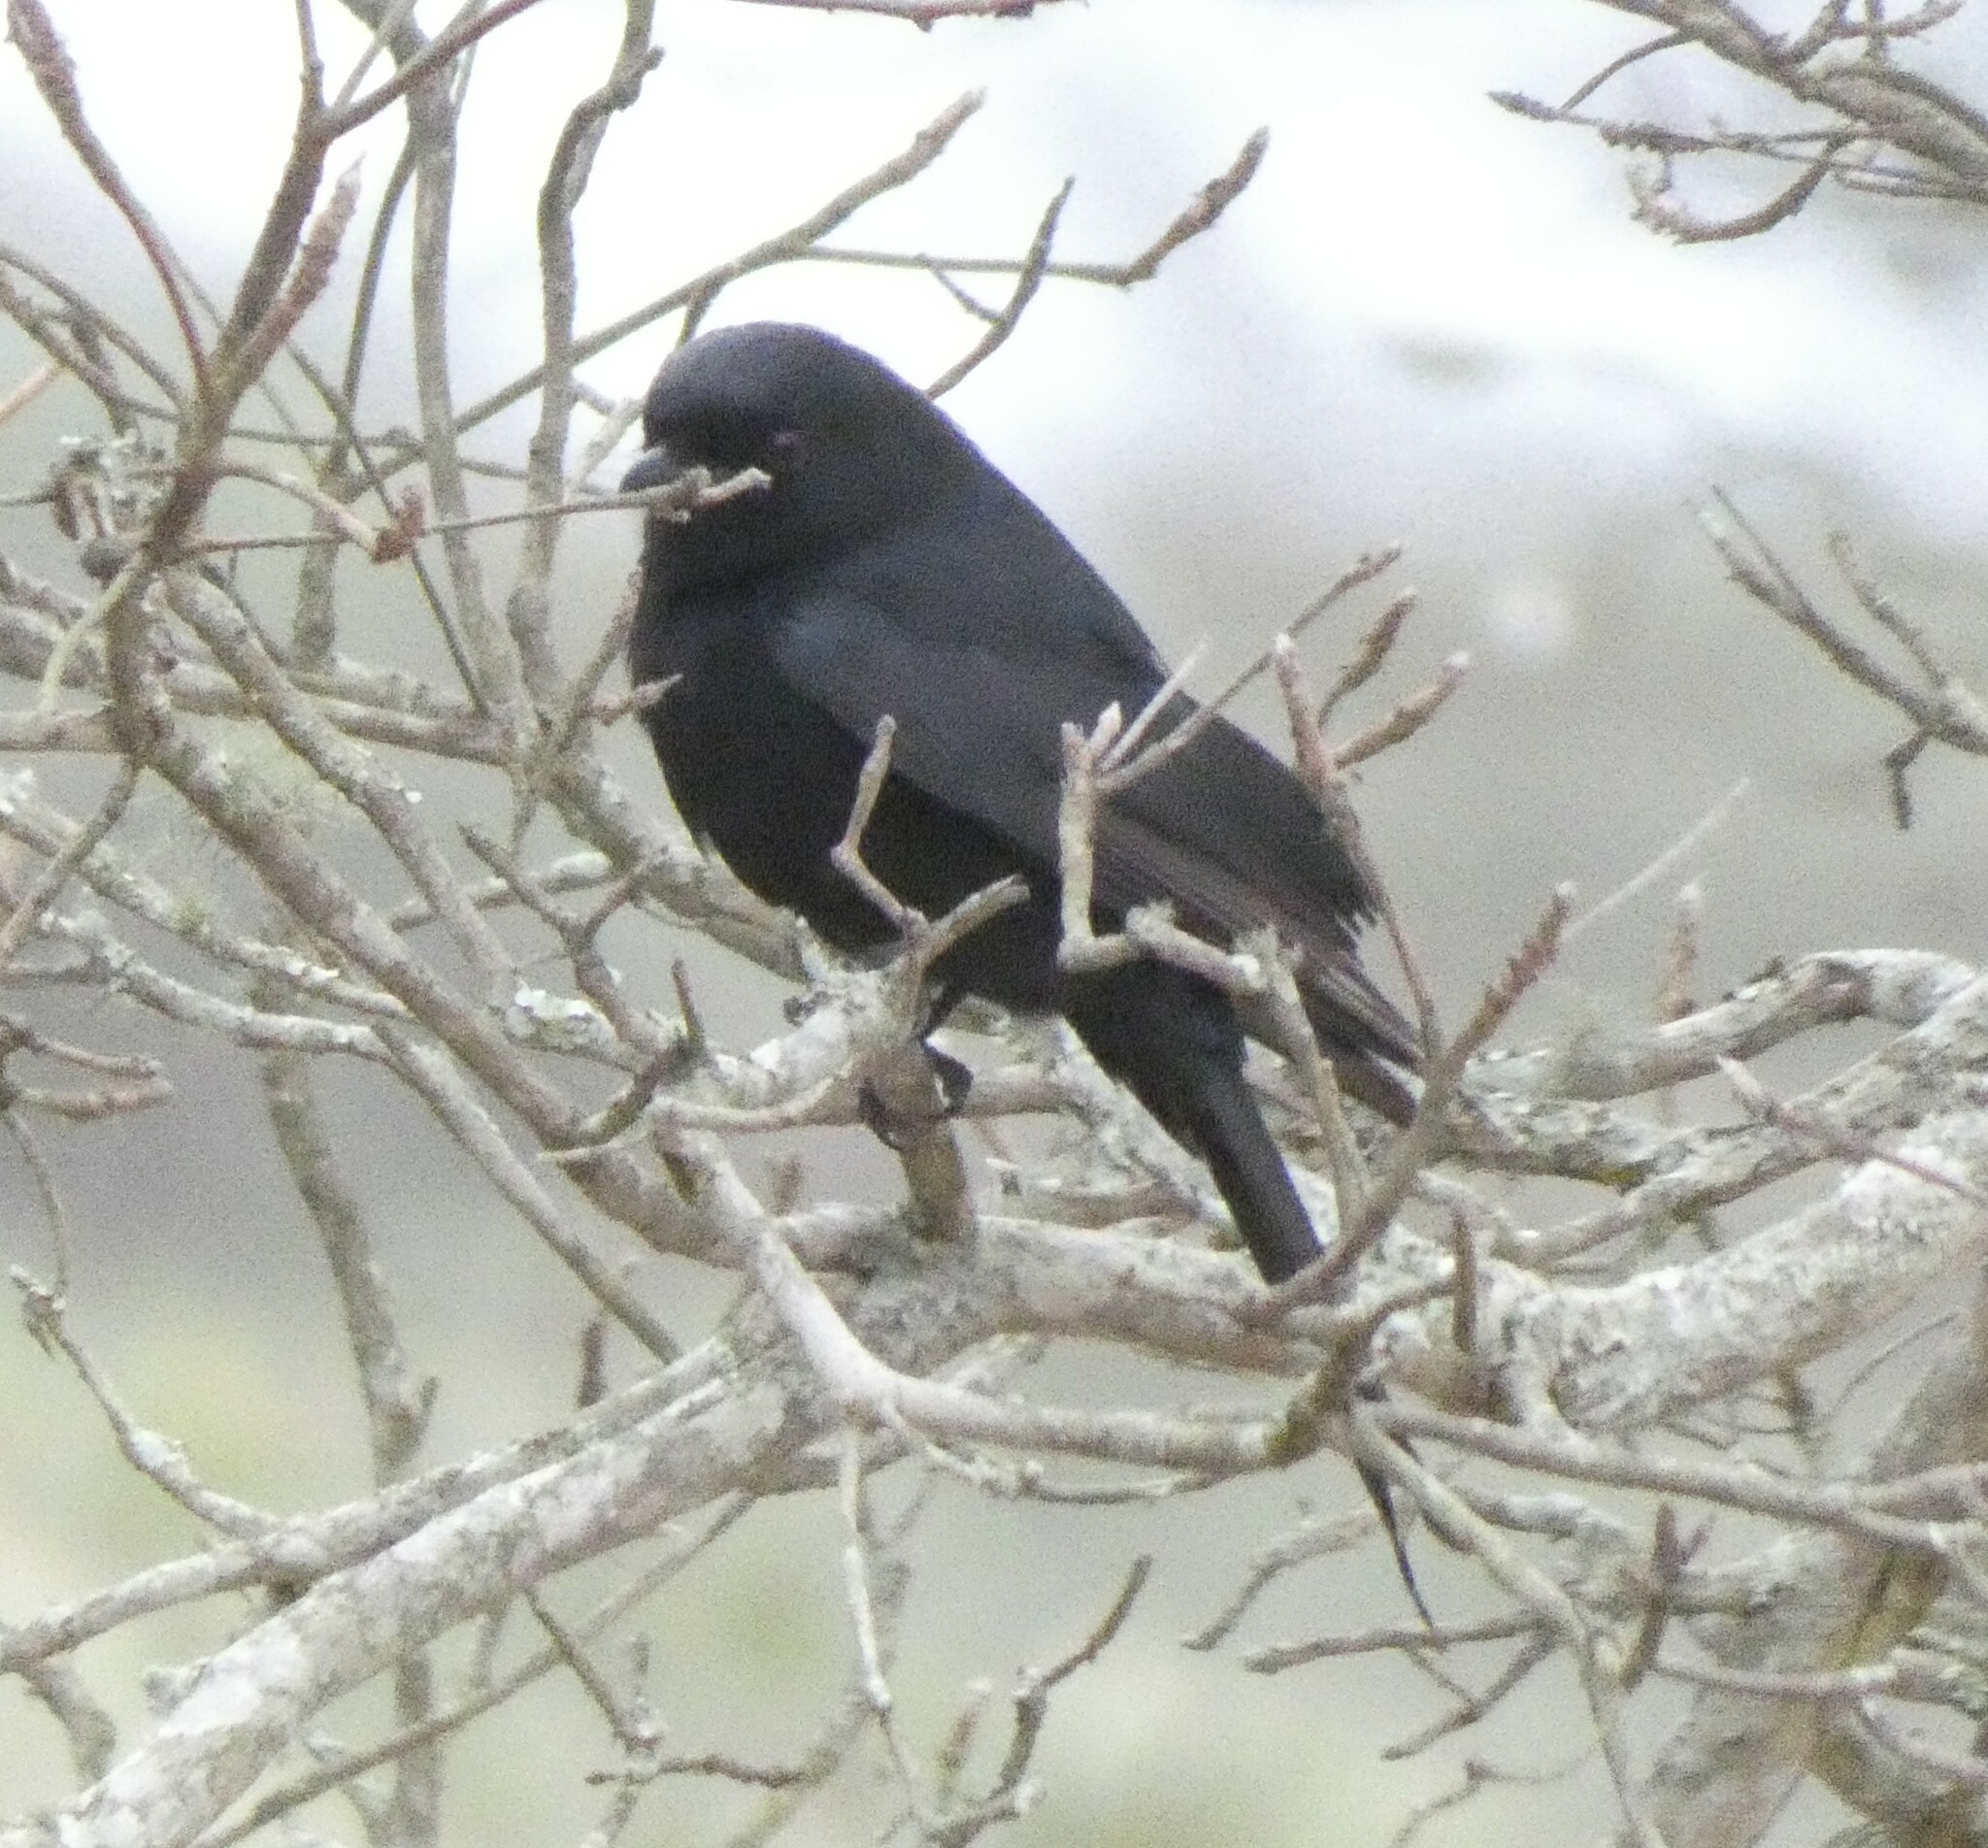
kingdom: Animalia
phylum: Chordata
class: Aves
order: Passeriformes
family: Muscicapidae
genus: Melaenornis
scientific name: Melaenornis pammelaina
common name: Southern black flycatcher
